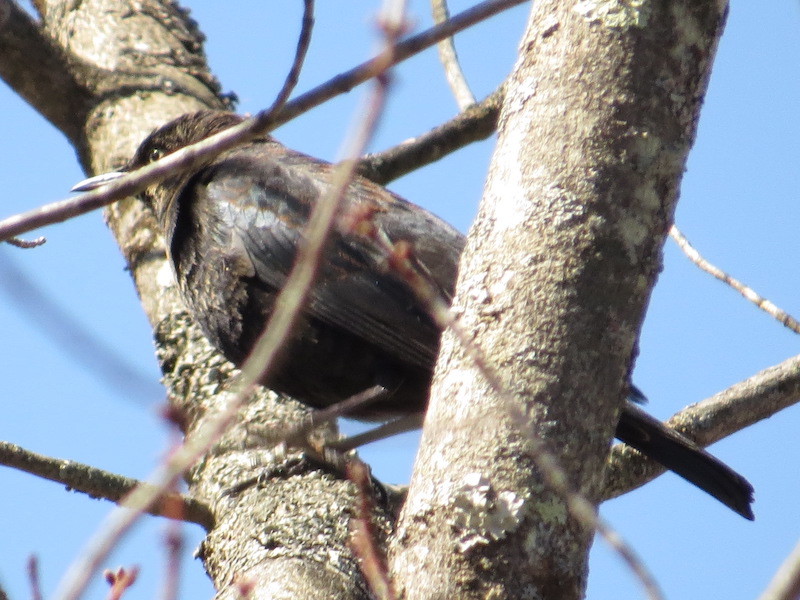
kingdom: Animalia
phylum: Chordata
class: Aves
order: Passeriformes
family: Icteridae
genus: Euphagus
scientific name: Euphagus carolinus
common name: Rusty blackbird
